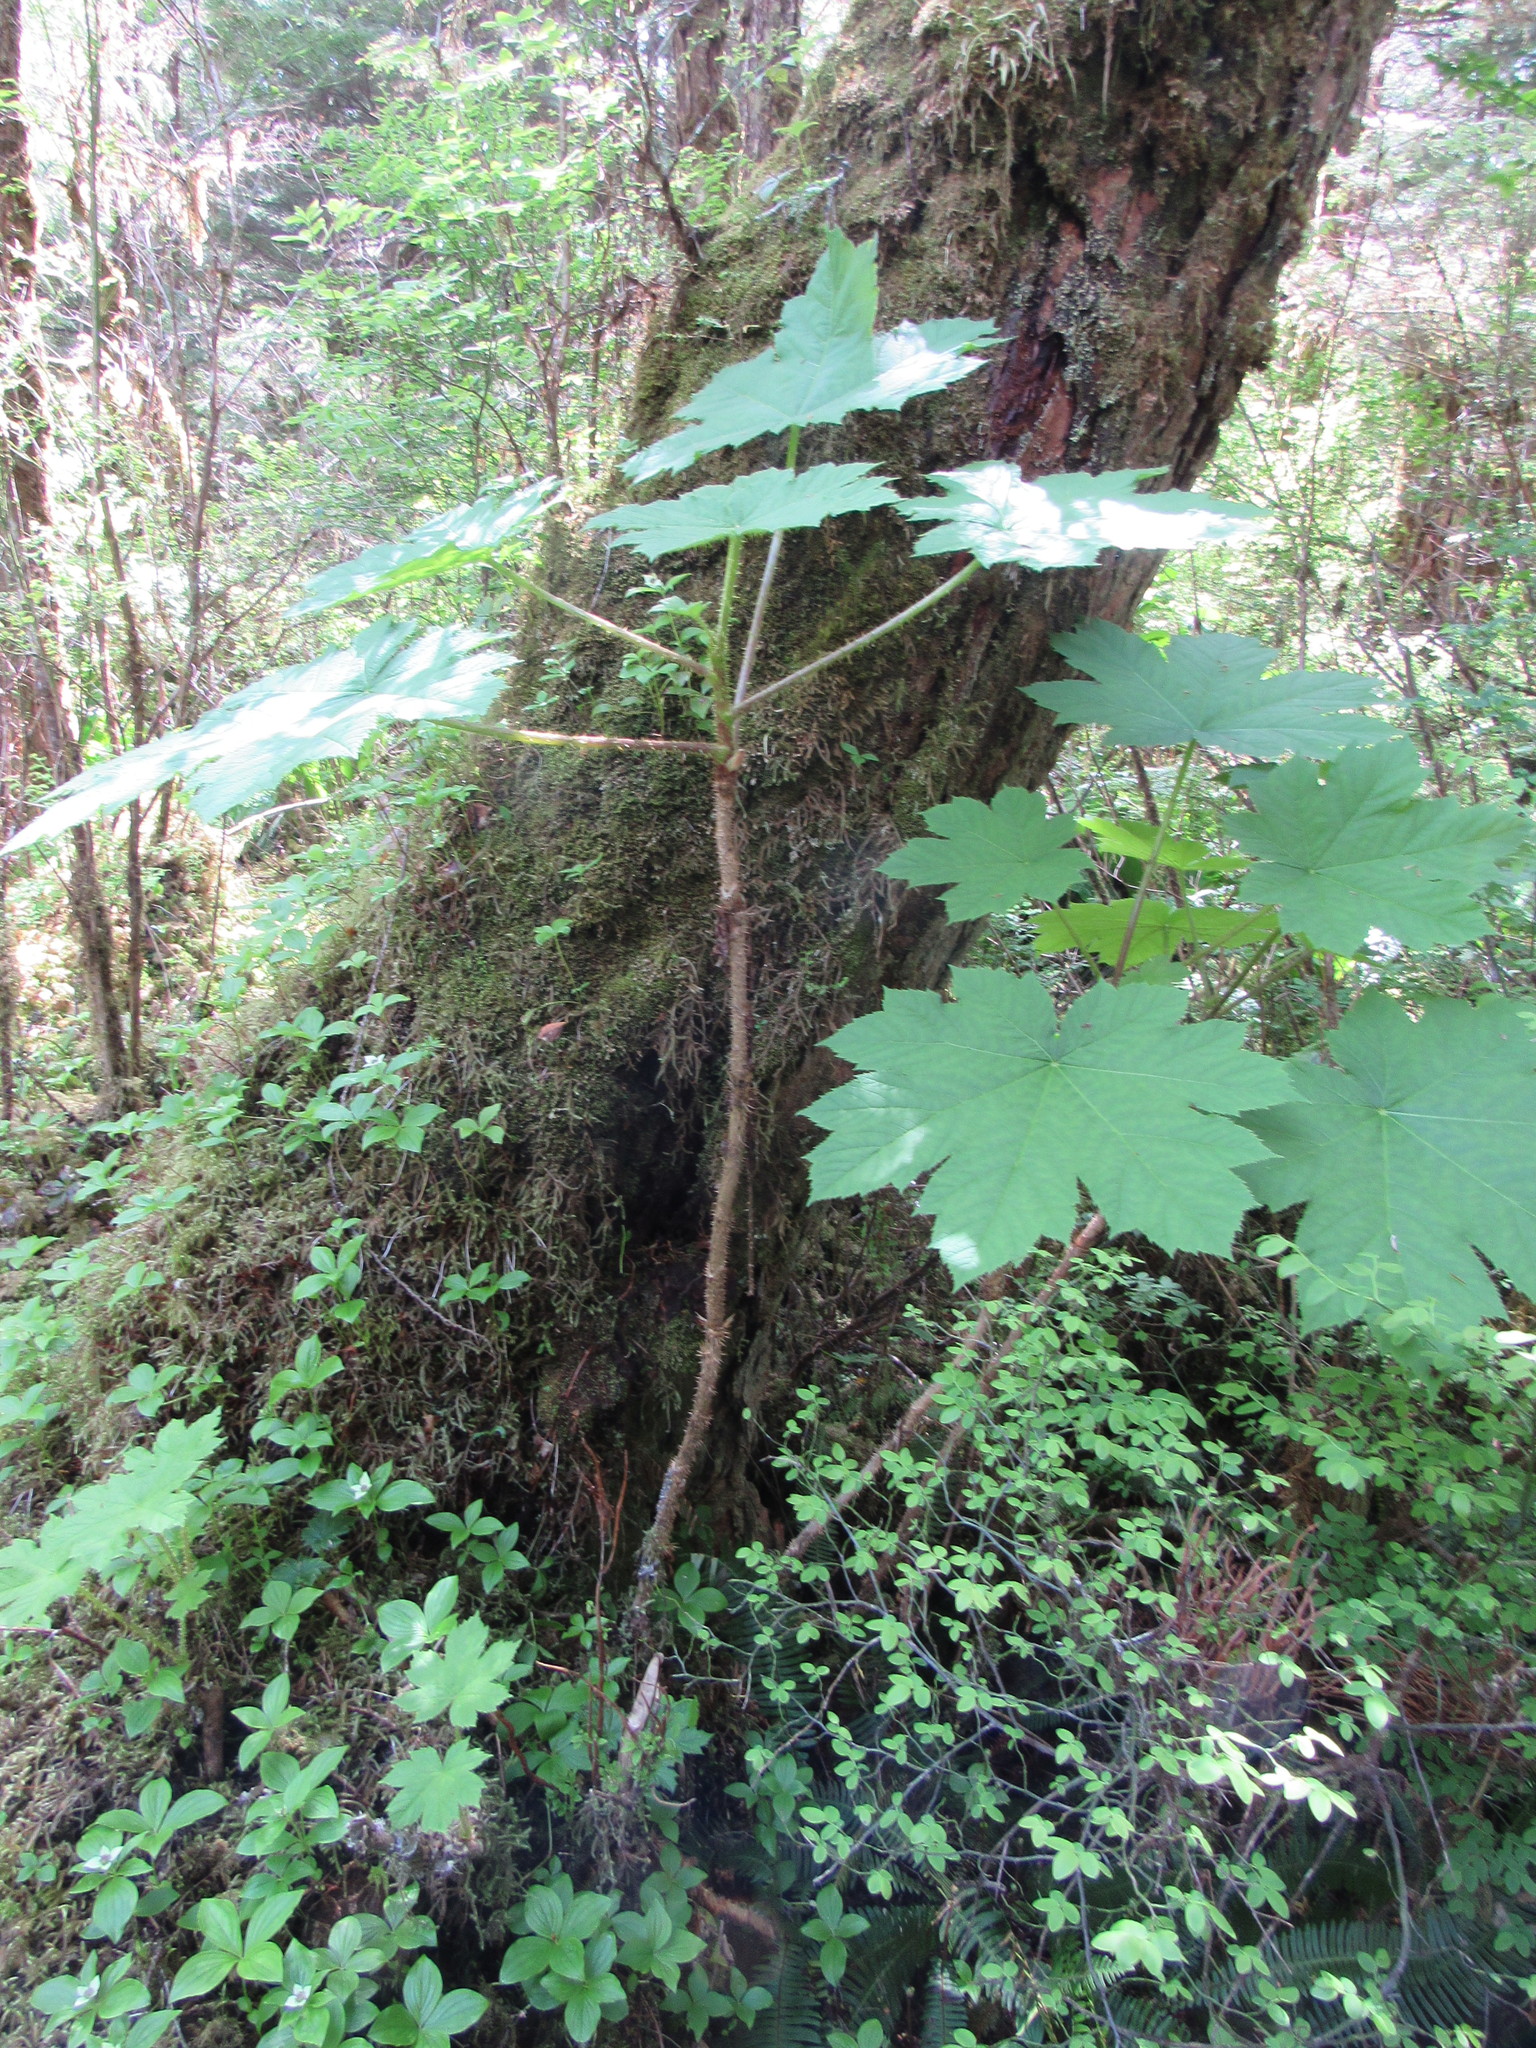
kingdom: Plantae
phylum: Tracheophyta
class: Magnoliopsida
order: Apiales
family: Araliaceae
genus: Oplopanax
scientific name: Oplopanax horridus
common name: Devil's walking-stick
